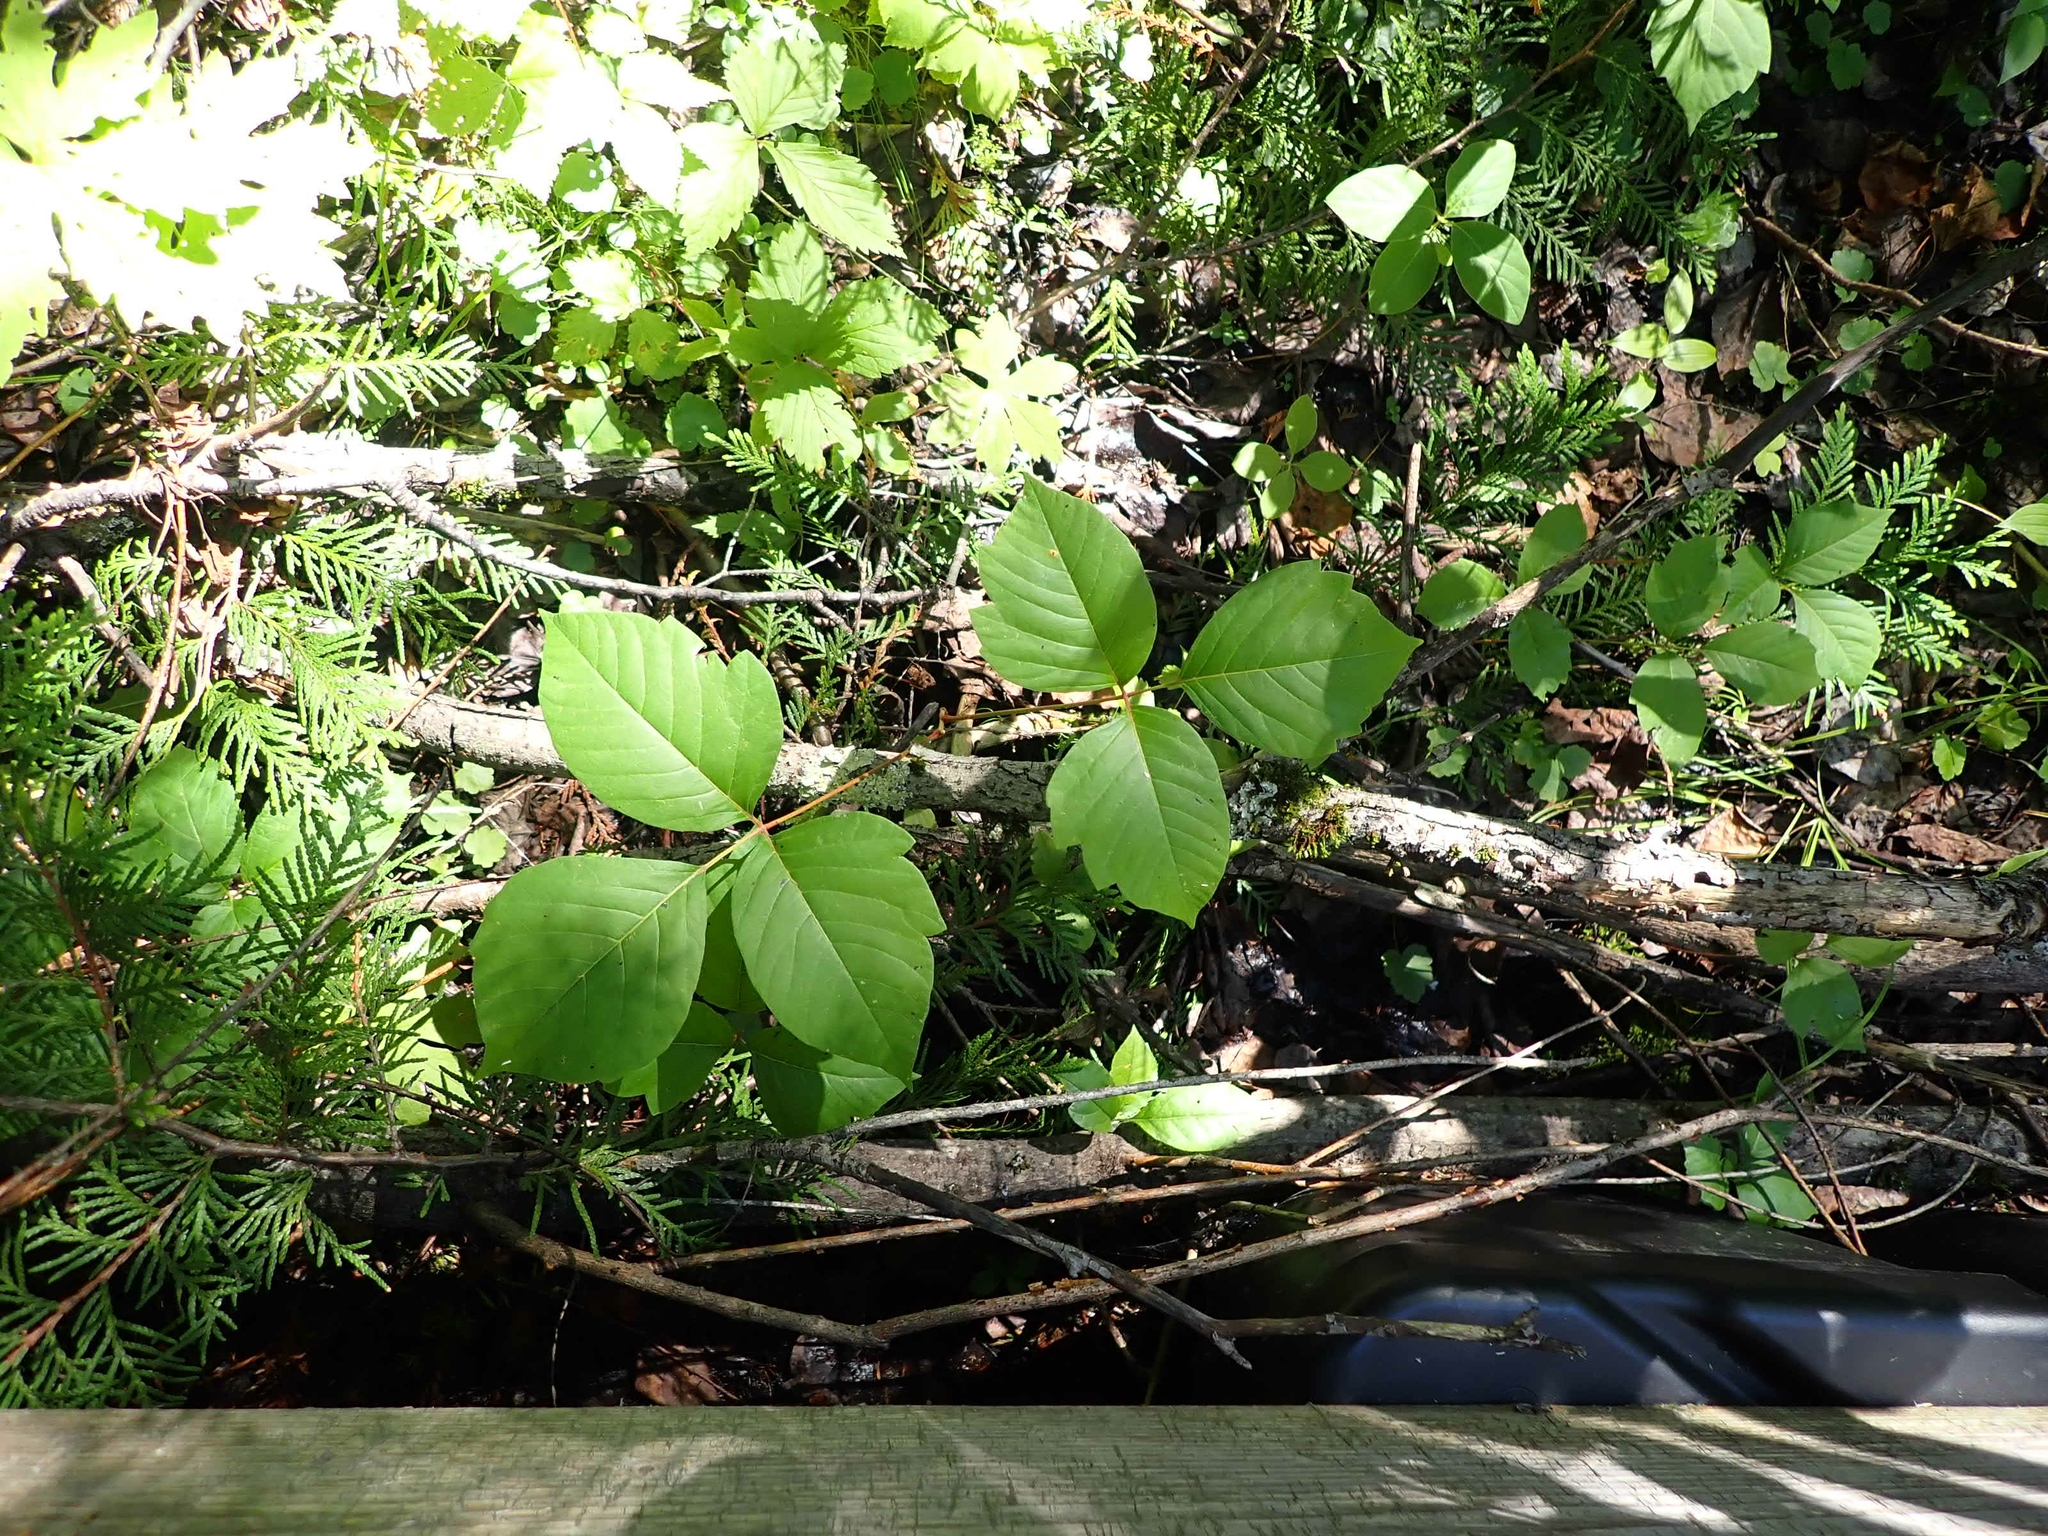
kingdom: Plantae
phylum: Tracheophyta
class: Magnoliopsida
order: Sapindales
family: Anacardiaceae
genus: Toxicodendron
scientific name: Toxicodendron rydbergii
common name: Rydberg's poison-ivy
